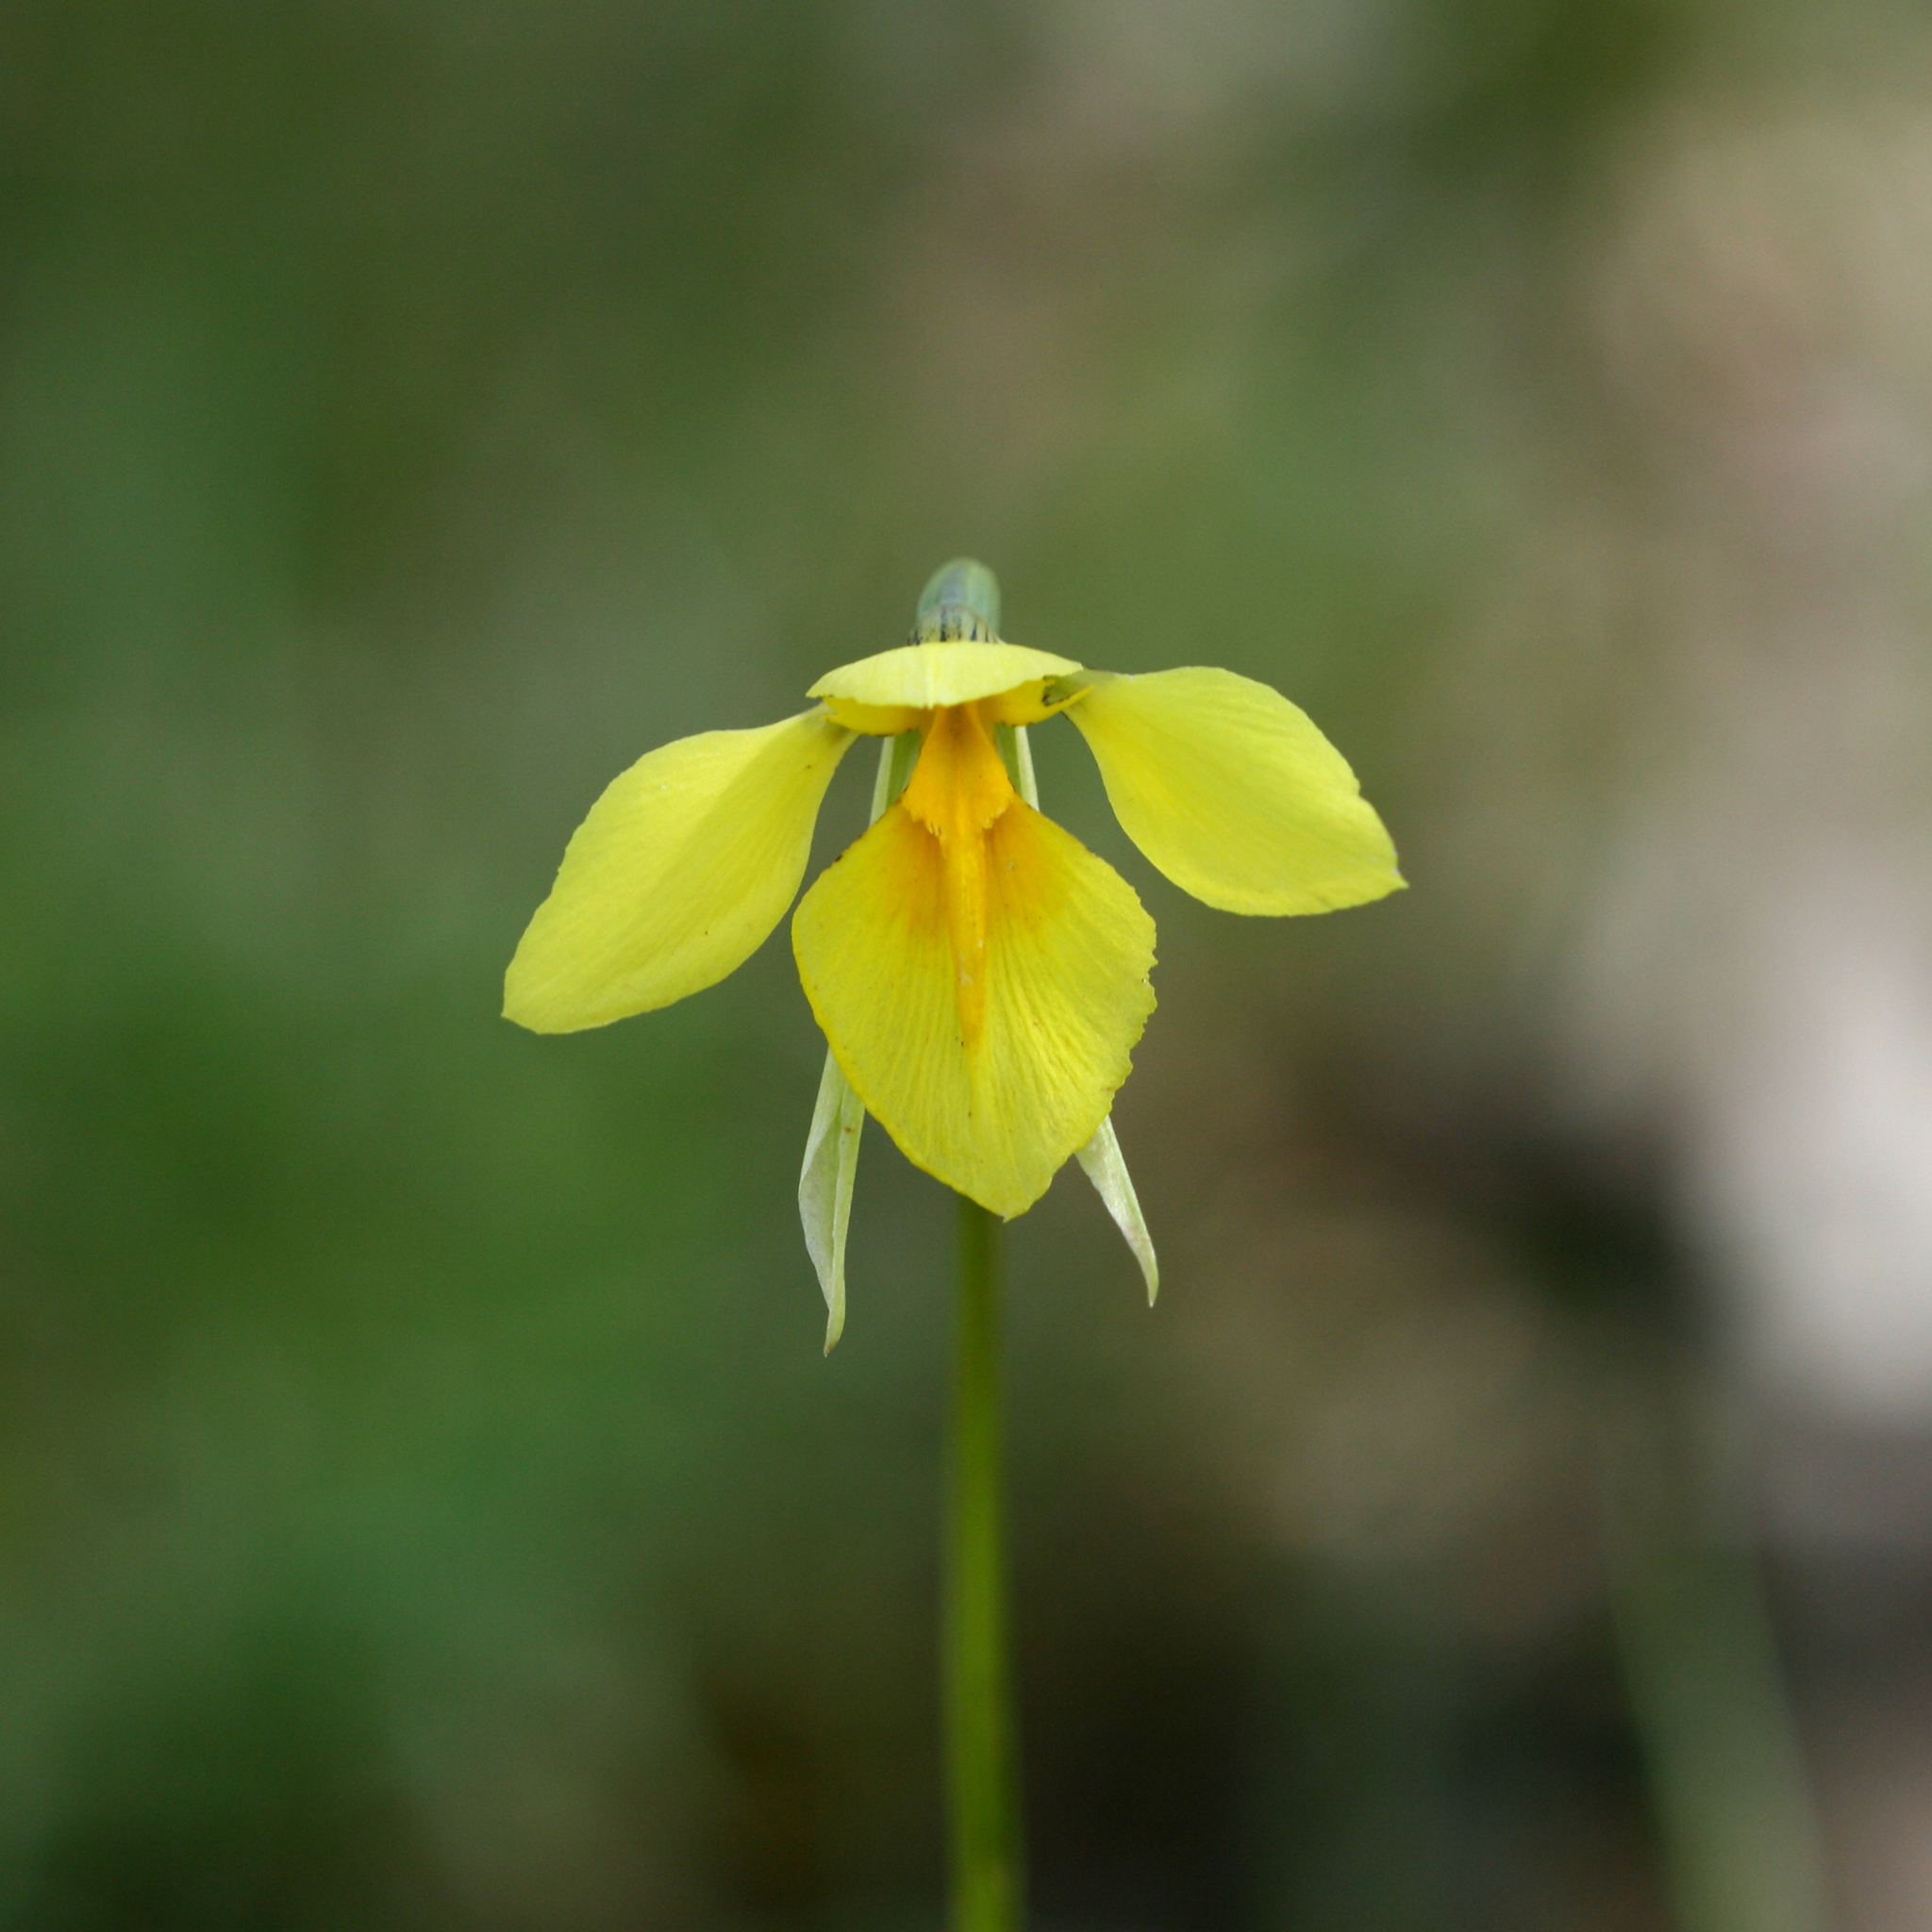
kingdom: Plantae
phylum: Tracheophyta
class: Liliopsida
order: Asparagales
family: Orchidaceae
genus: Diuris
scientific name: Diuris behrii
